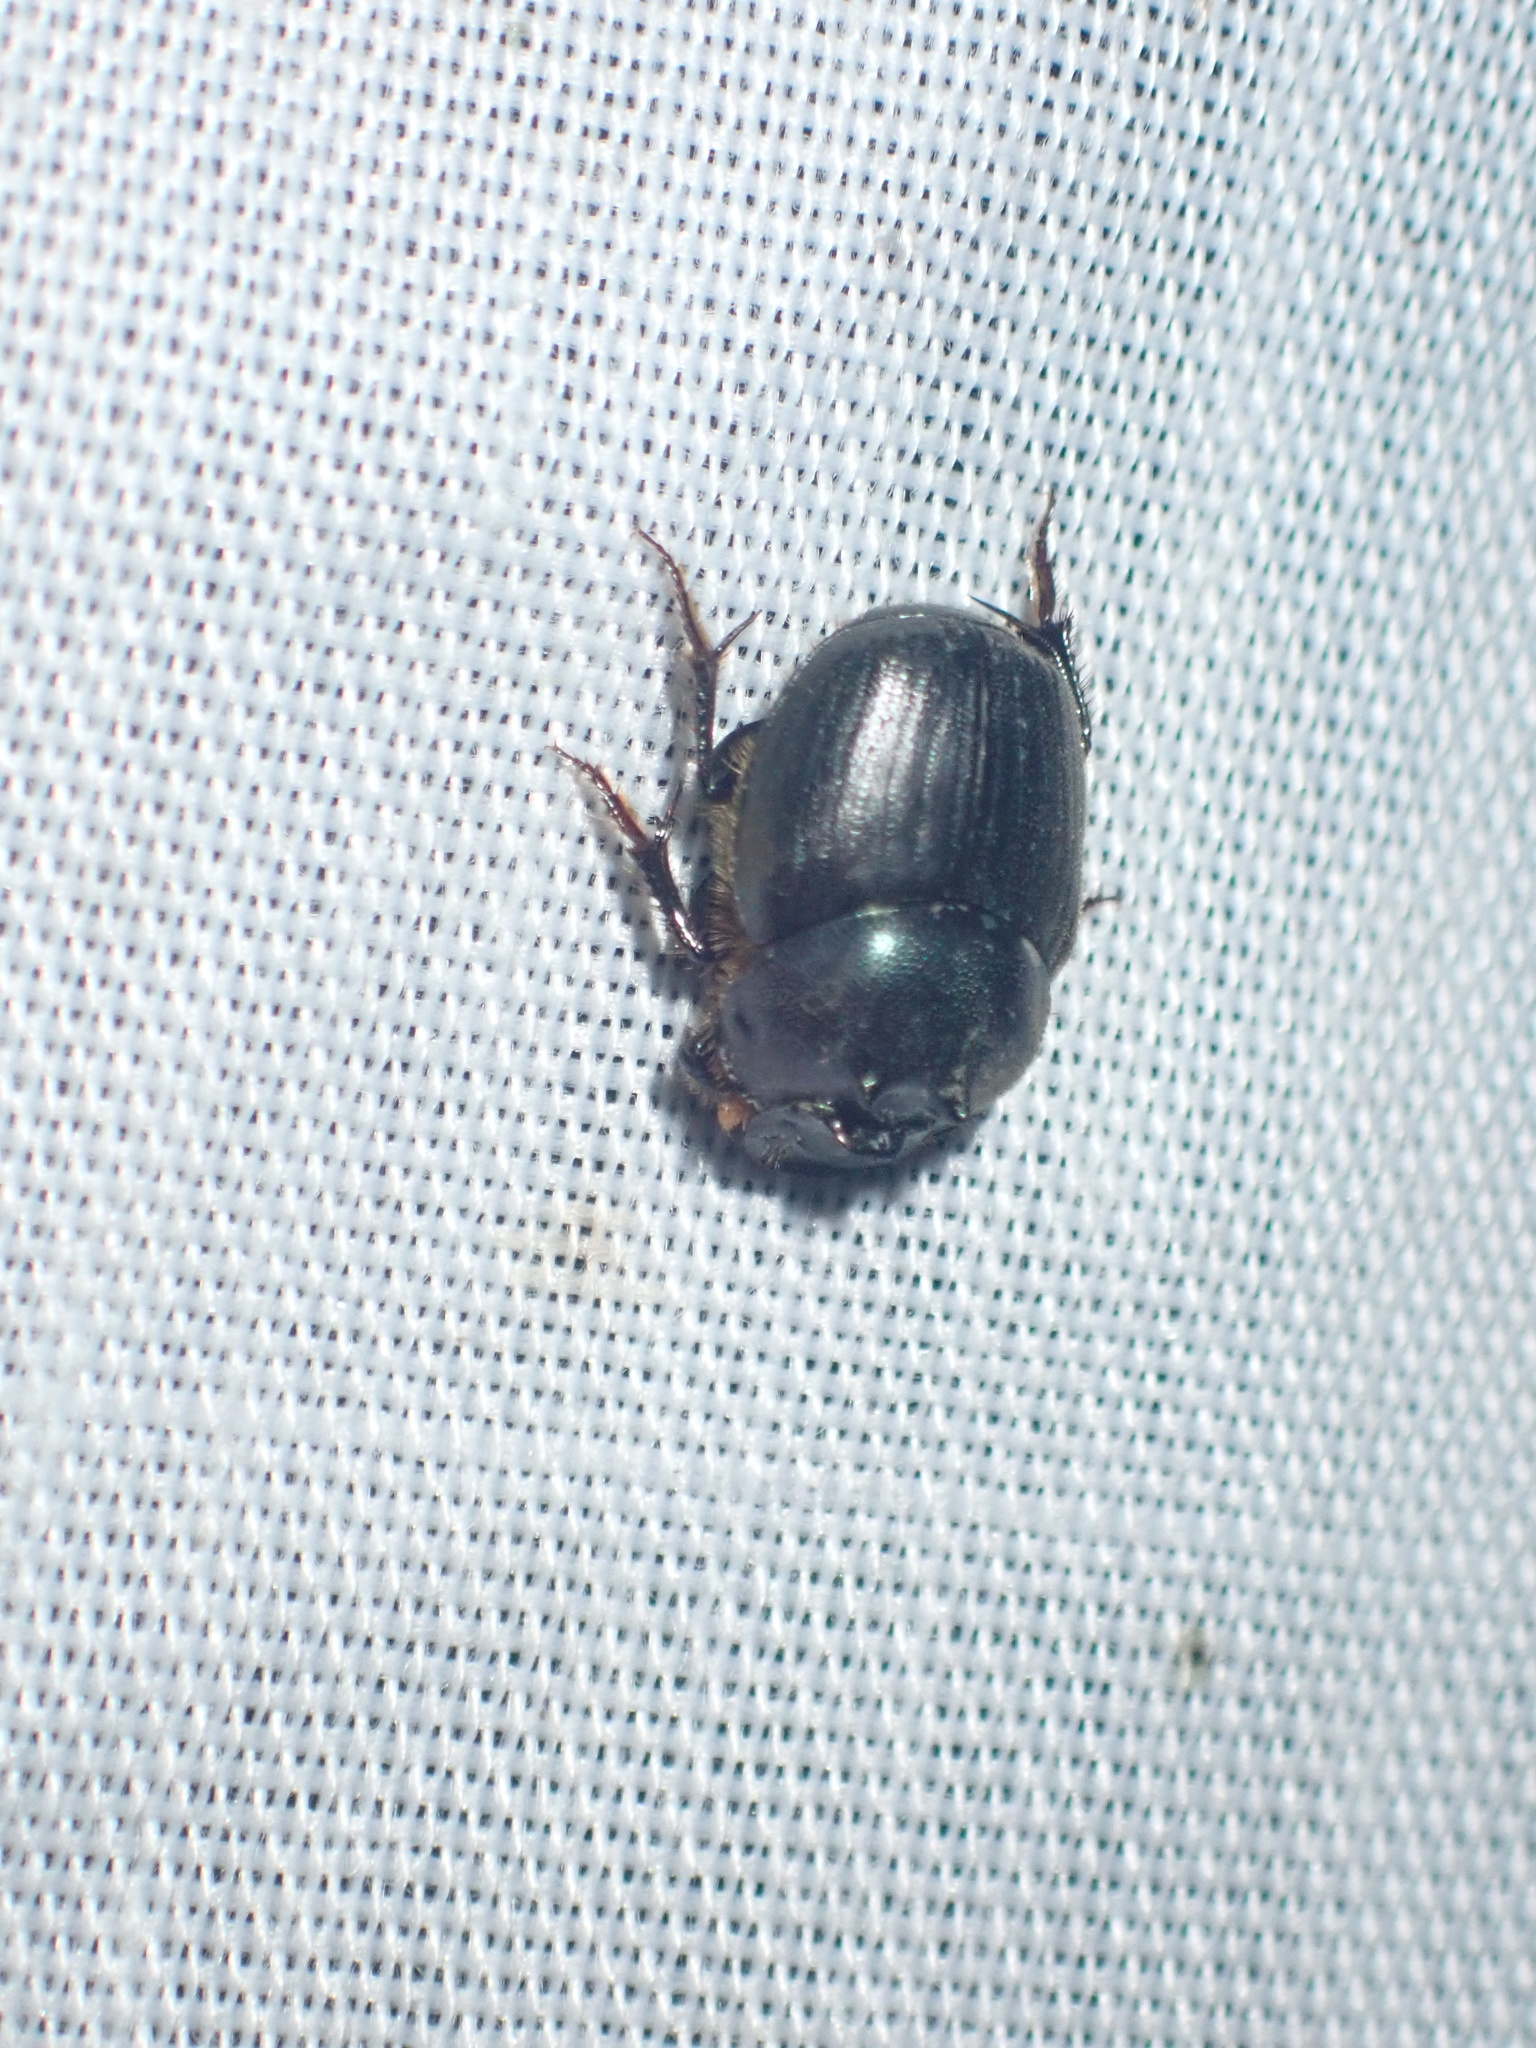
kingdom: Animalia
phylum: Arthropoda
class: Insecta
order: Coleoptera
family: Scarabaeidae
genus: Onthophagus
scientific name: Onthophagus deterrens
